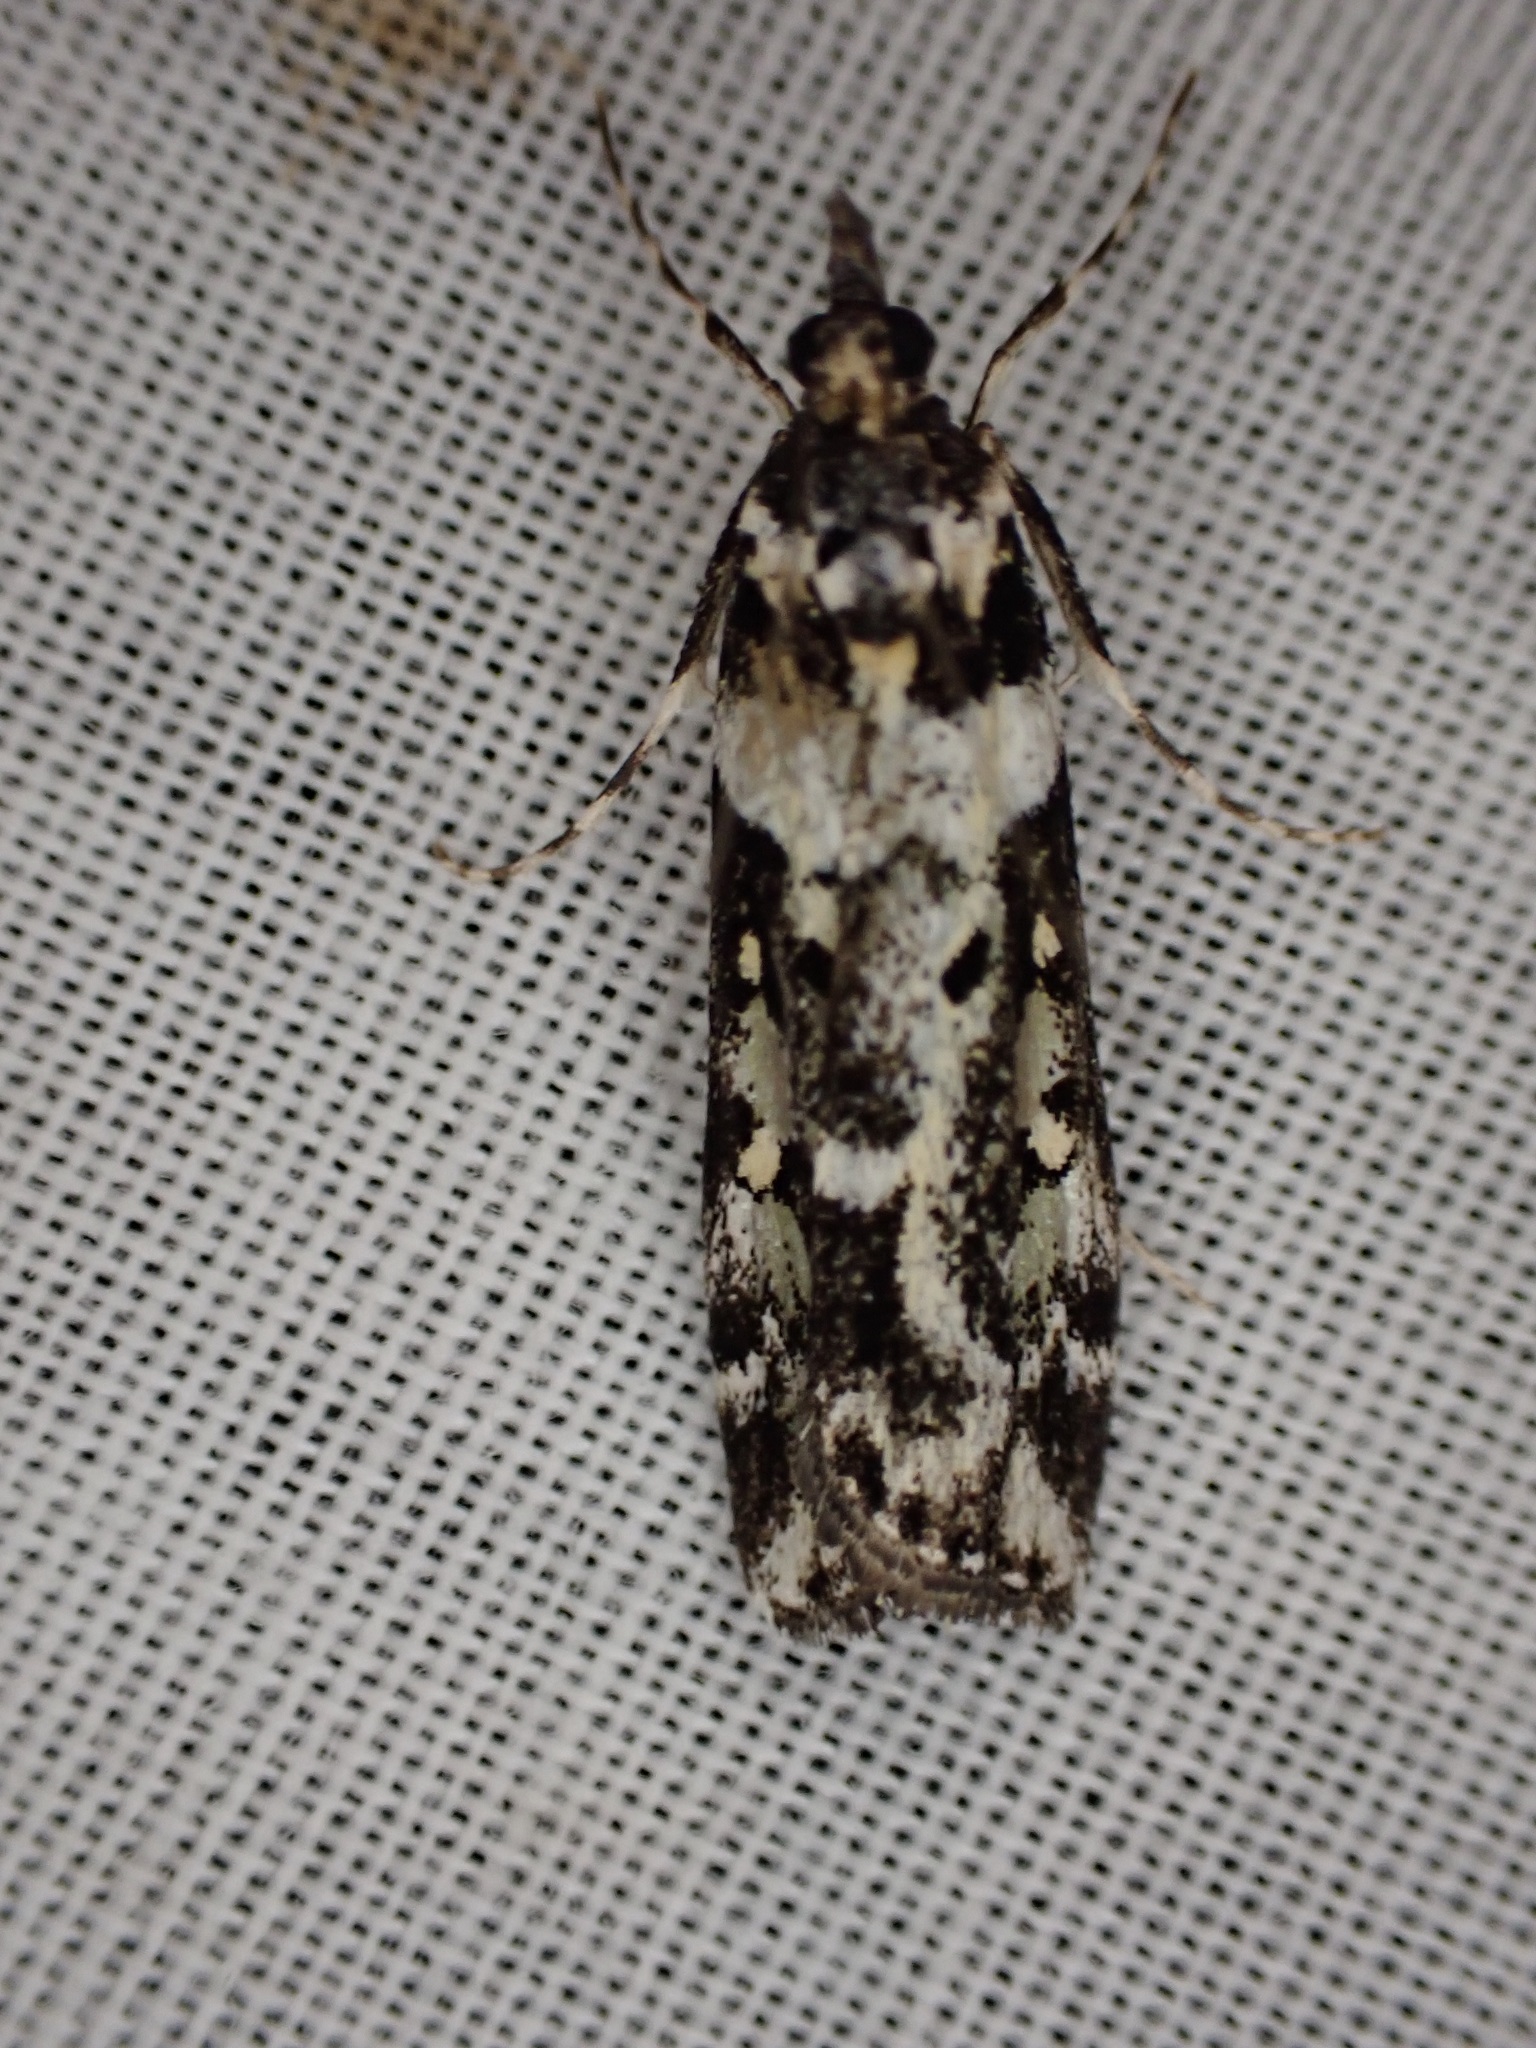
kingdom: Animalia
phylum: Arthropoda
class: Insecta
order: Lepidoptera
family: Crambidae
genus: Eudonia
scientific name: Eudonia diphtheralis
